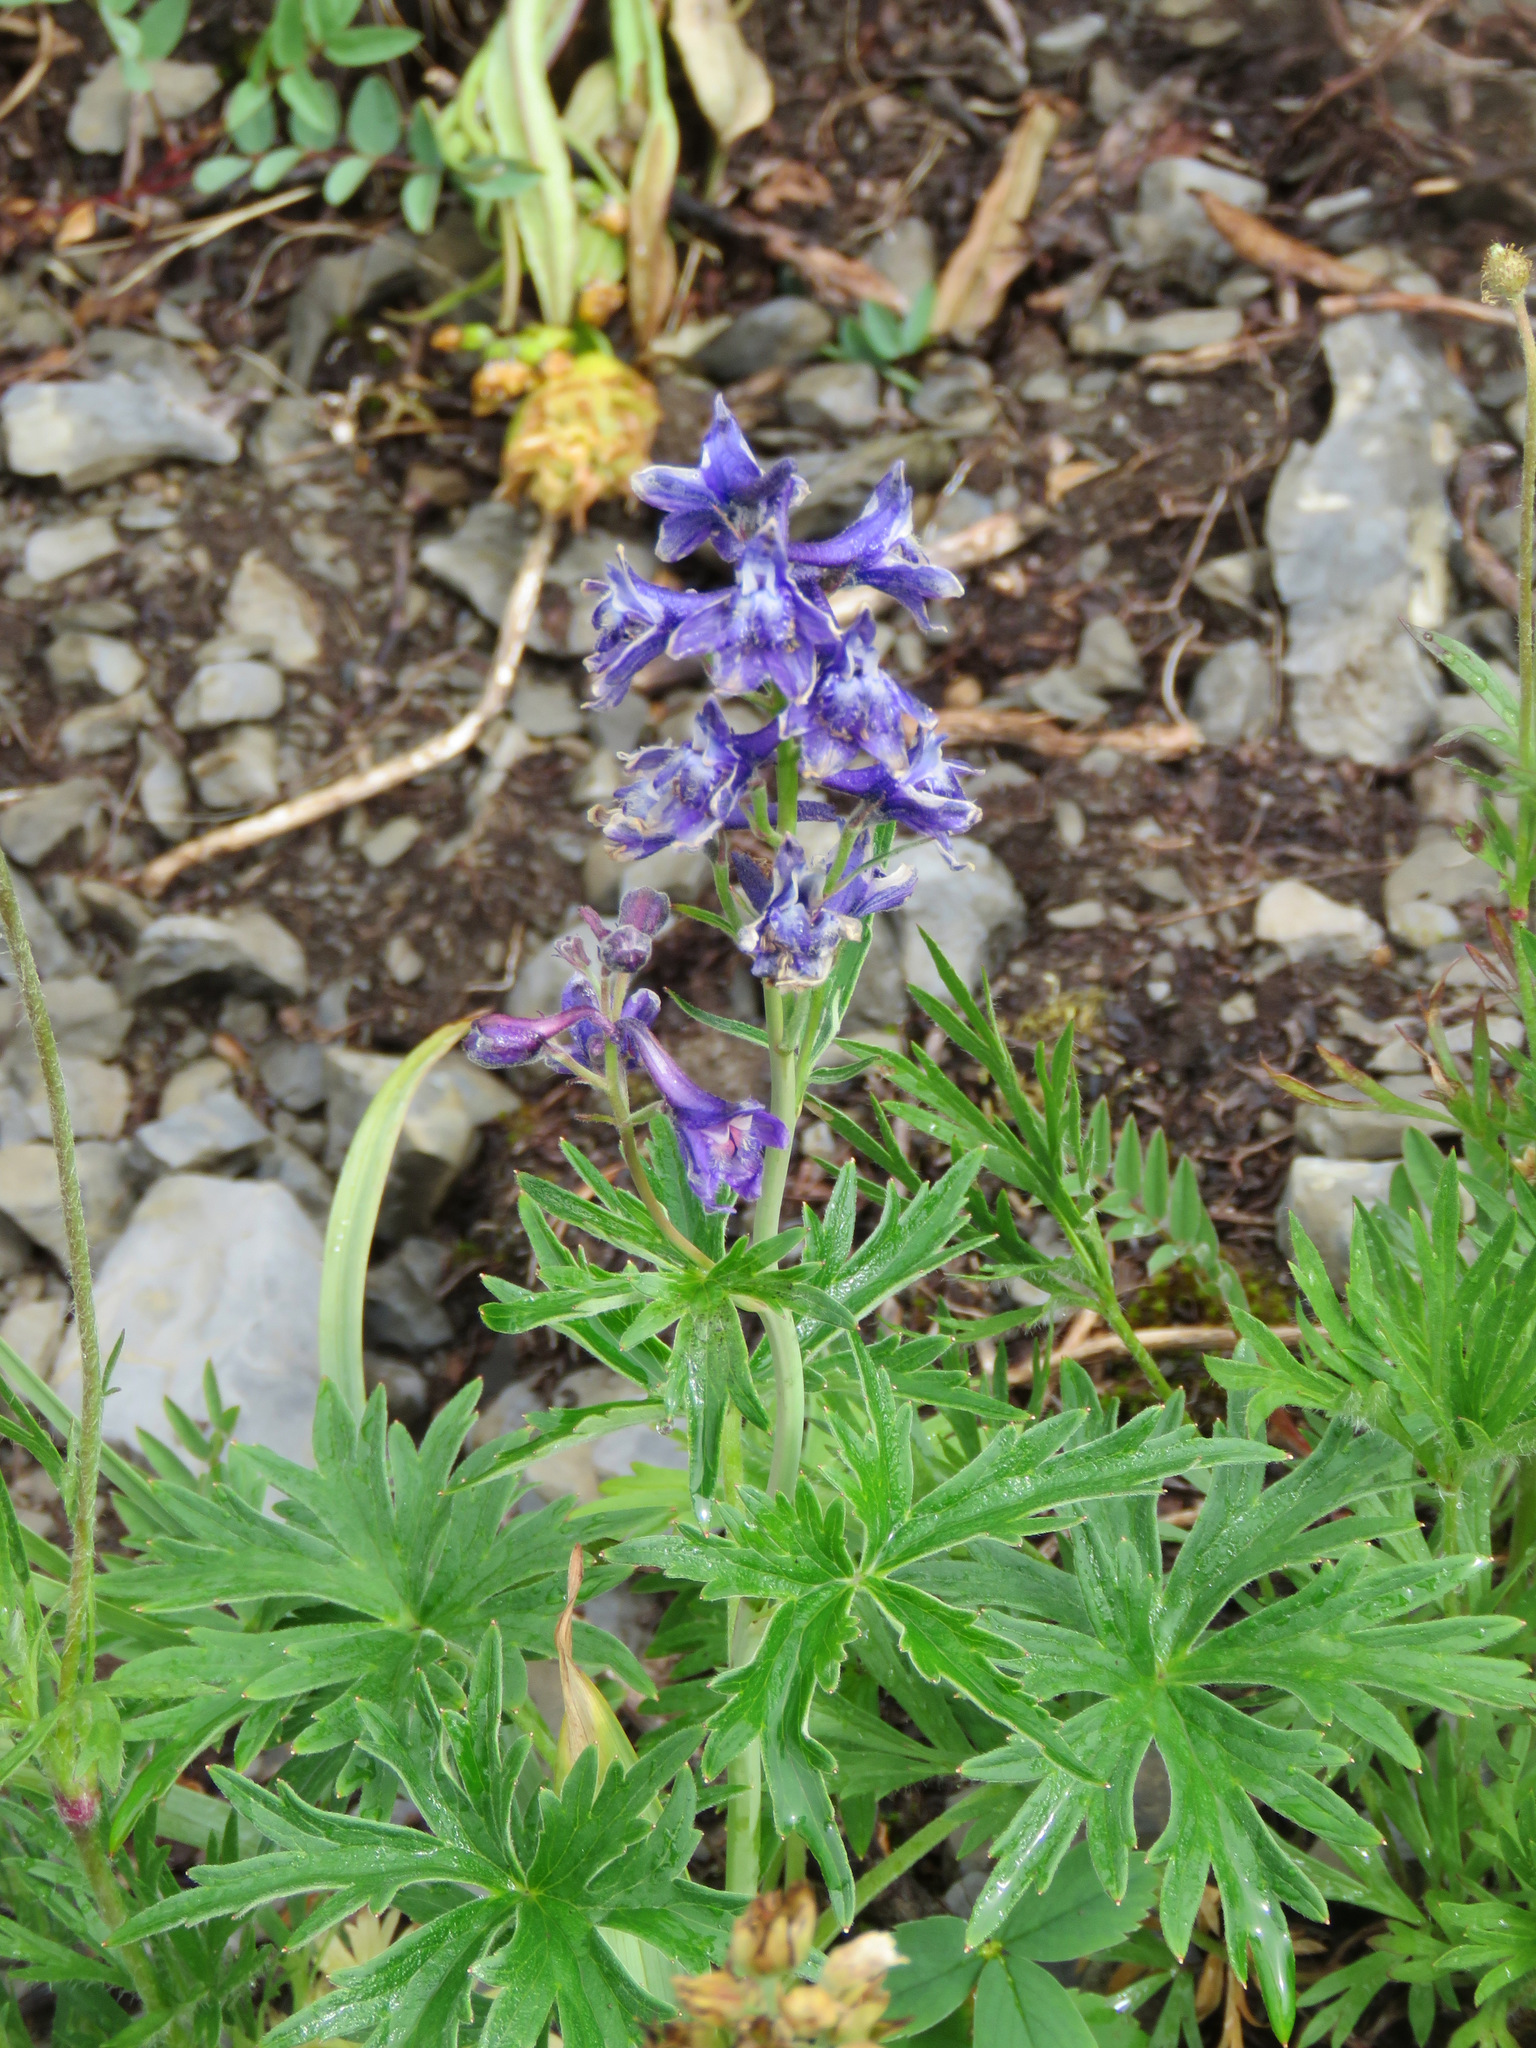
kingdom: Plantae
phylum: Tracheophyta
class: Magnoliopsida
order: Ranunculales
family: Ranunculaceae
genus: Delphinium
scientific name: Delphinium glaucum
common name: Brown's larkspur
